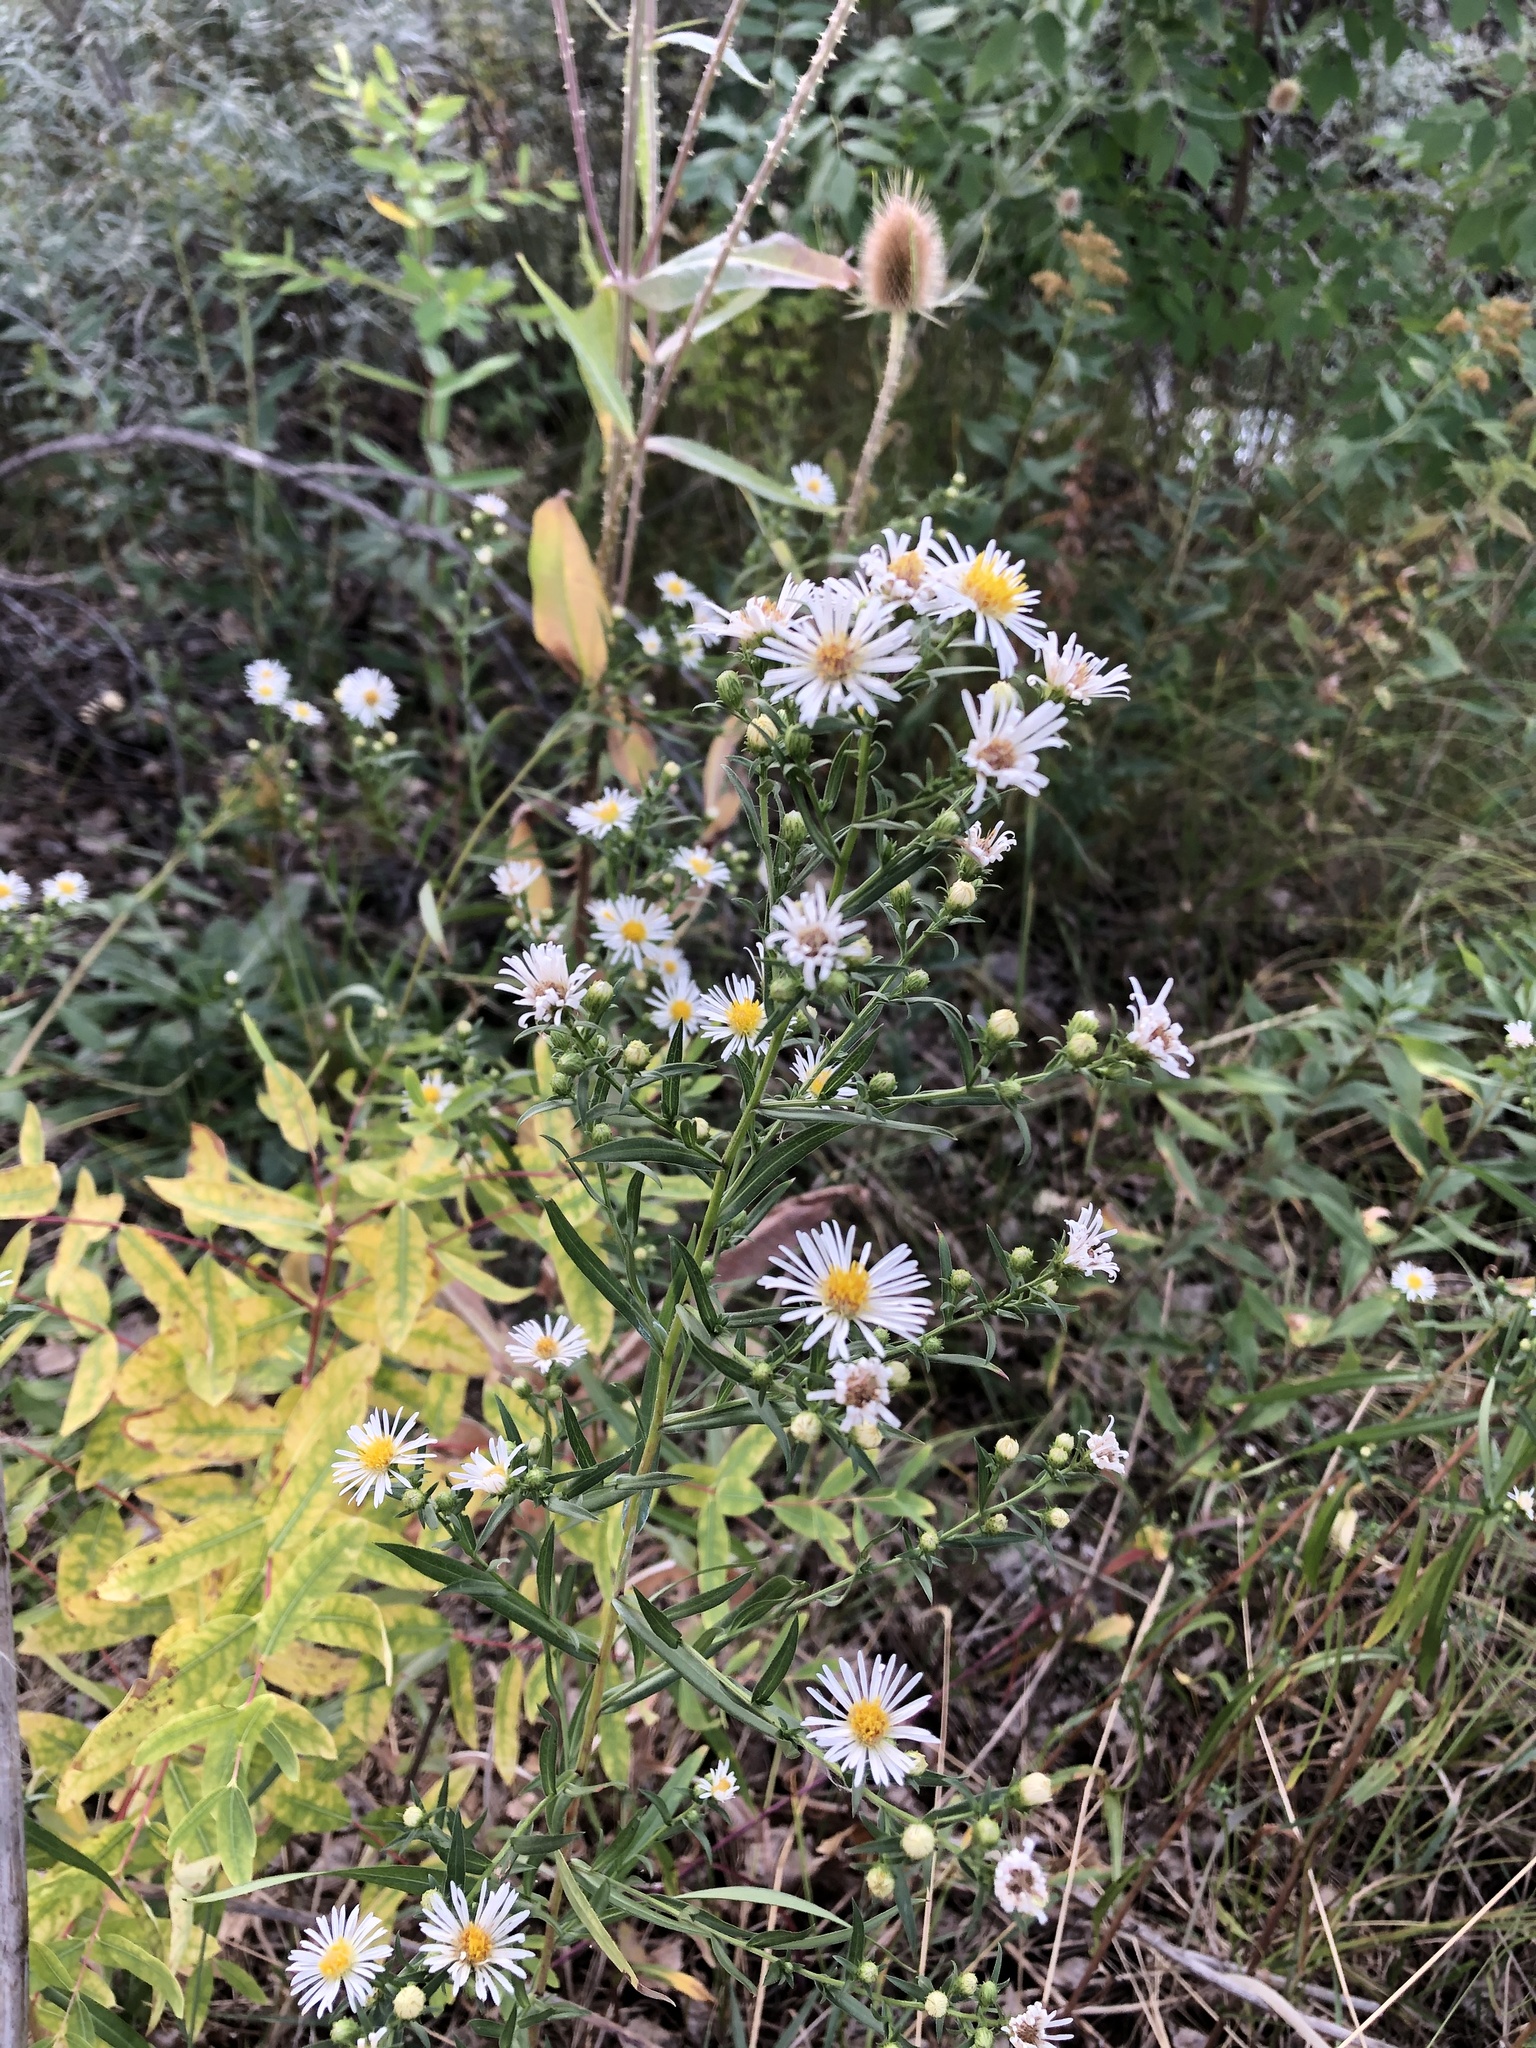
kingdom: Plantae
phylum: Tracheophyta
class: Magnoliopsida
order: Asterales
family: Asteraceae
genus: Symphyotrichum
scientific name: Symphyotrichum lanceolatum
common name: Panicled aster
